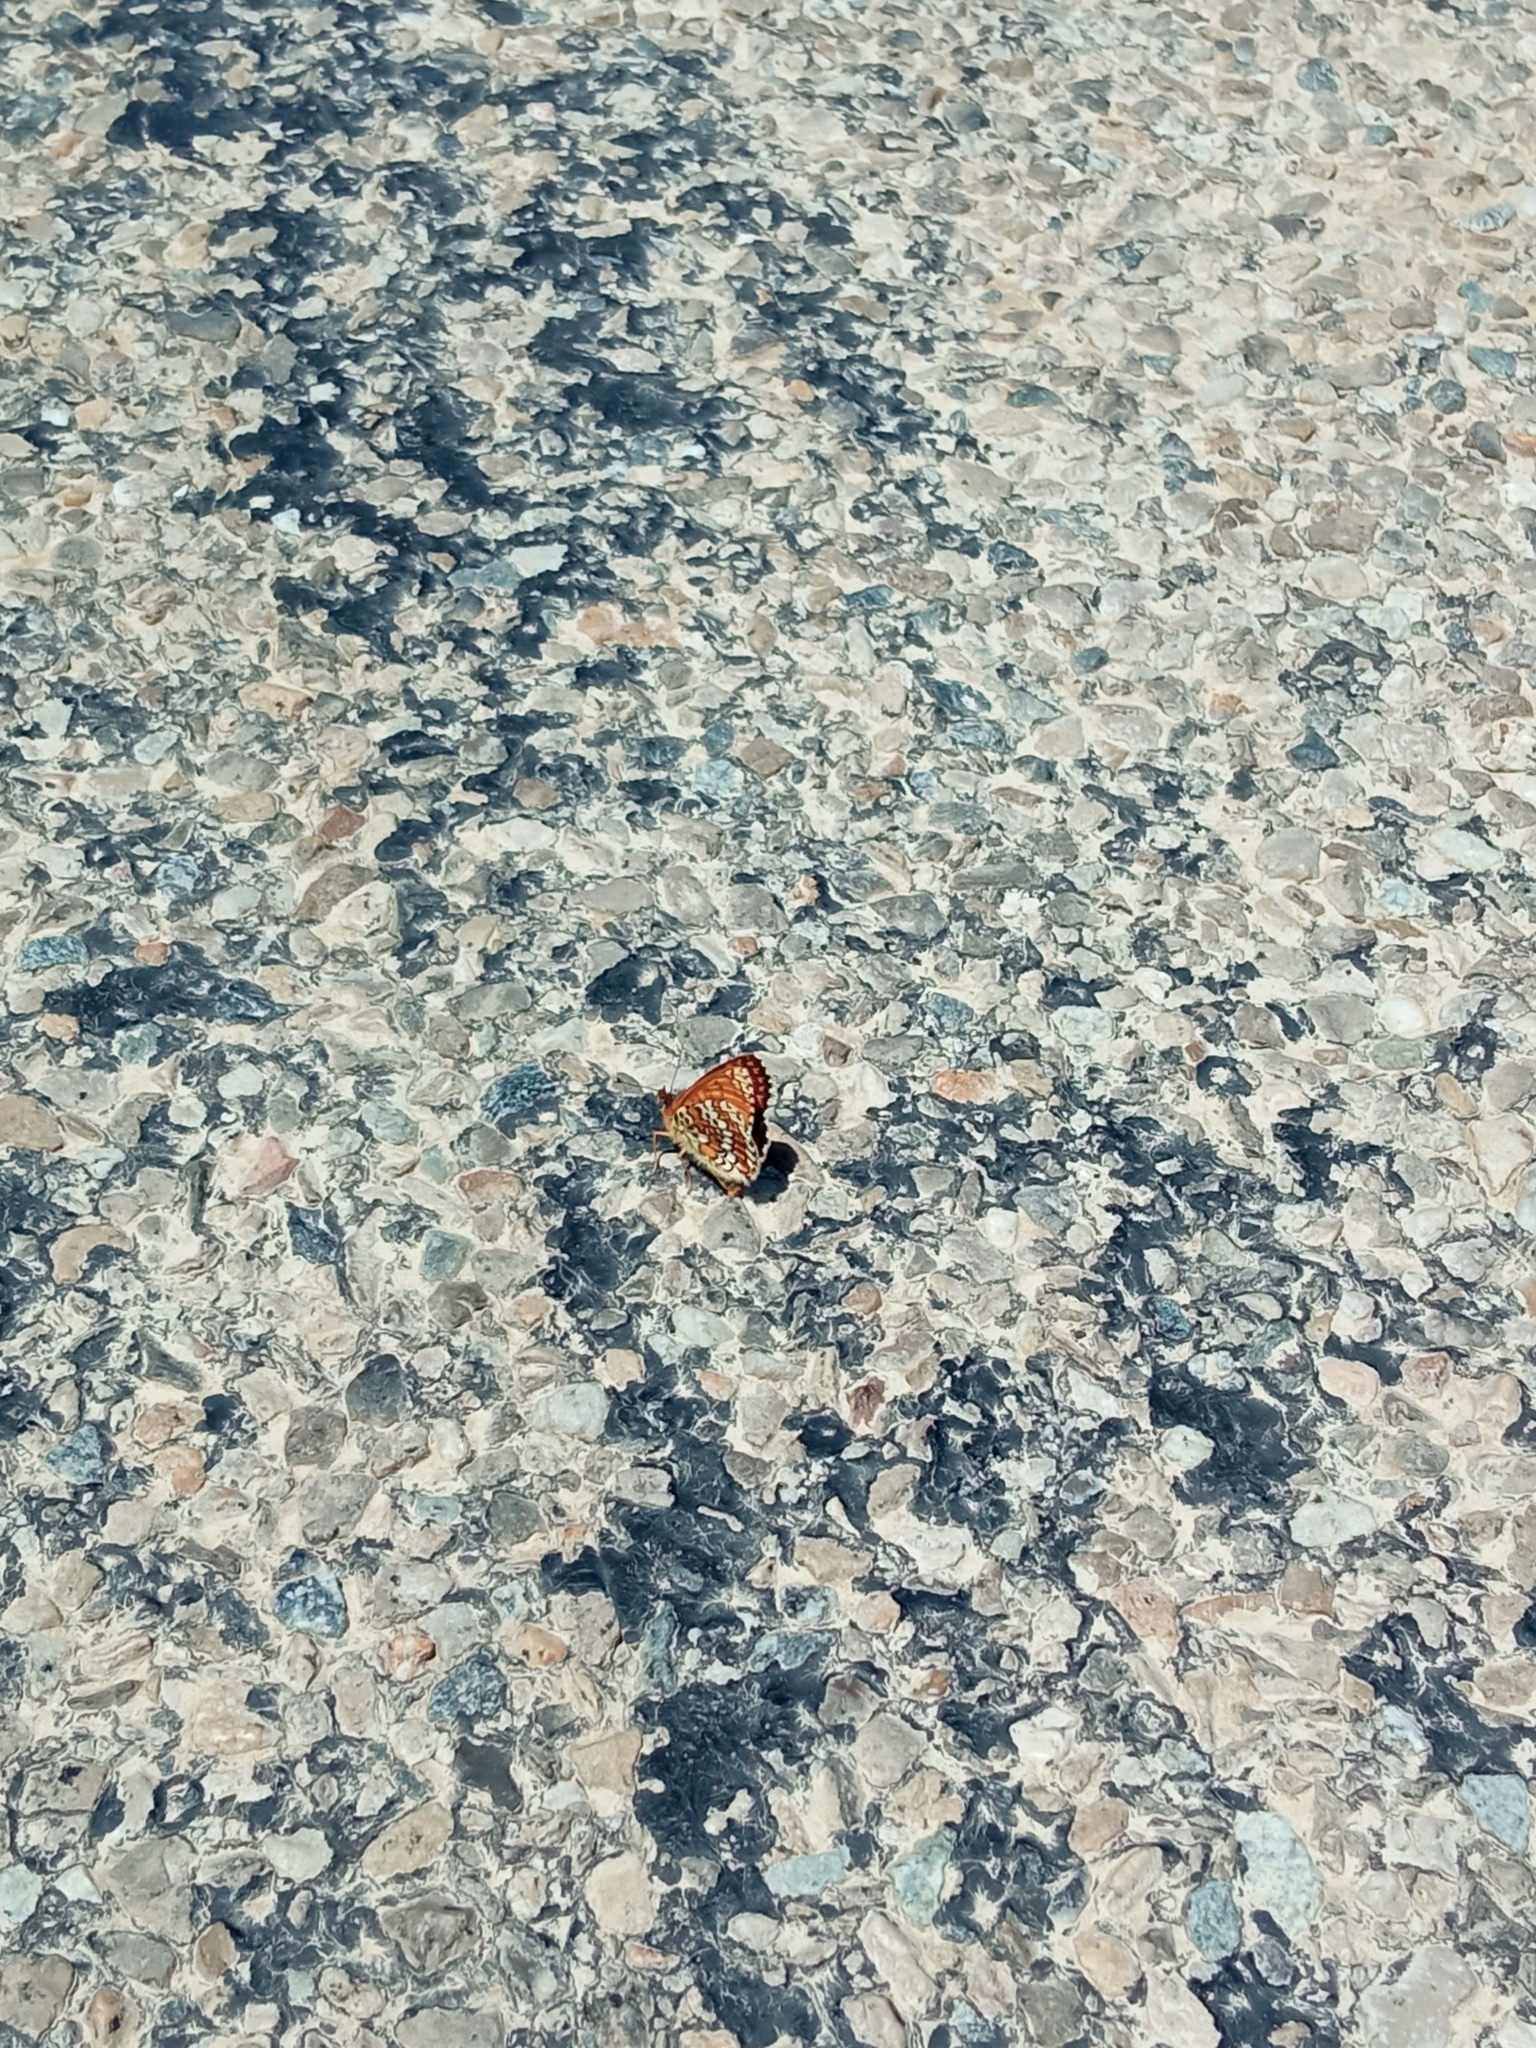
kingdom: Animalia
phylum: Arthropoda
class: Insecta
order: Lepidoptera
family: Nymphalidae
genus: Melitaea
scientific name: Melitaea cinxia
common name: Glanville fritillary
